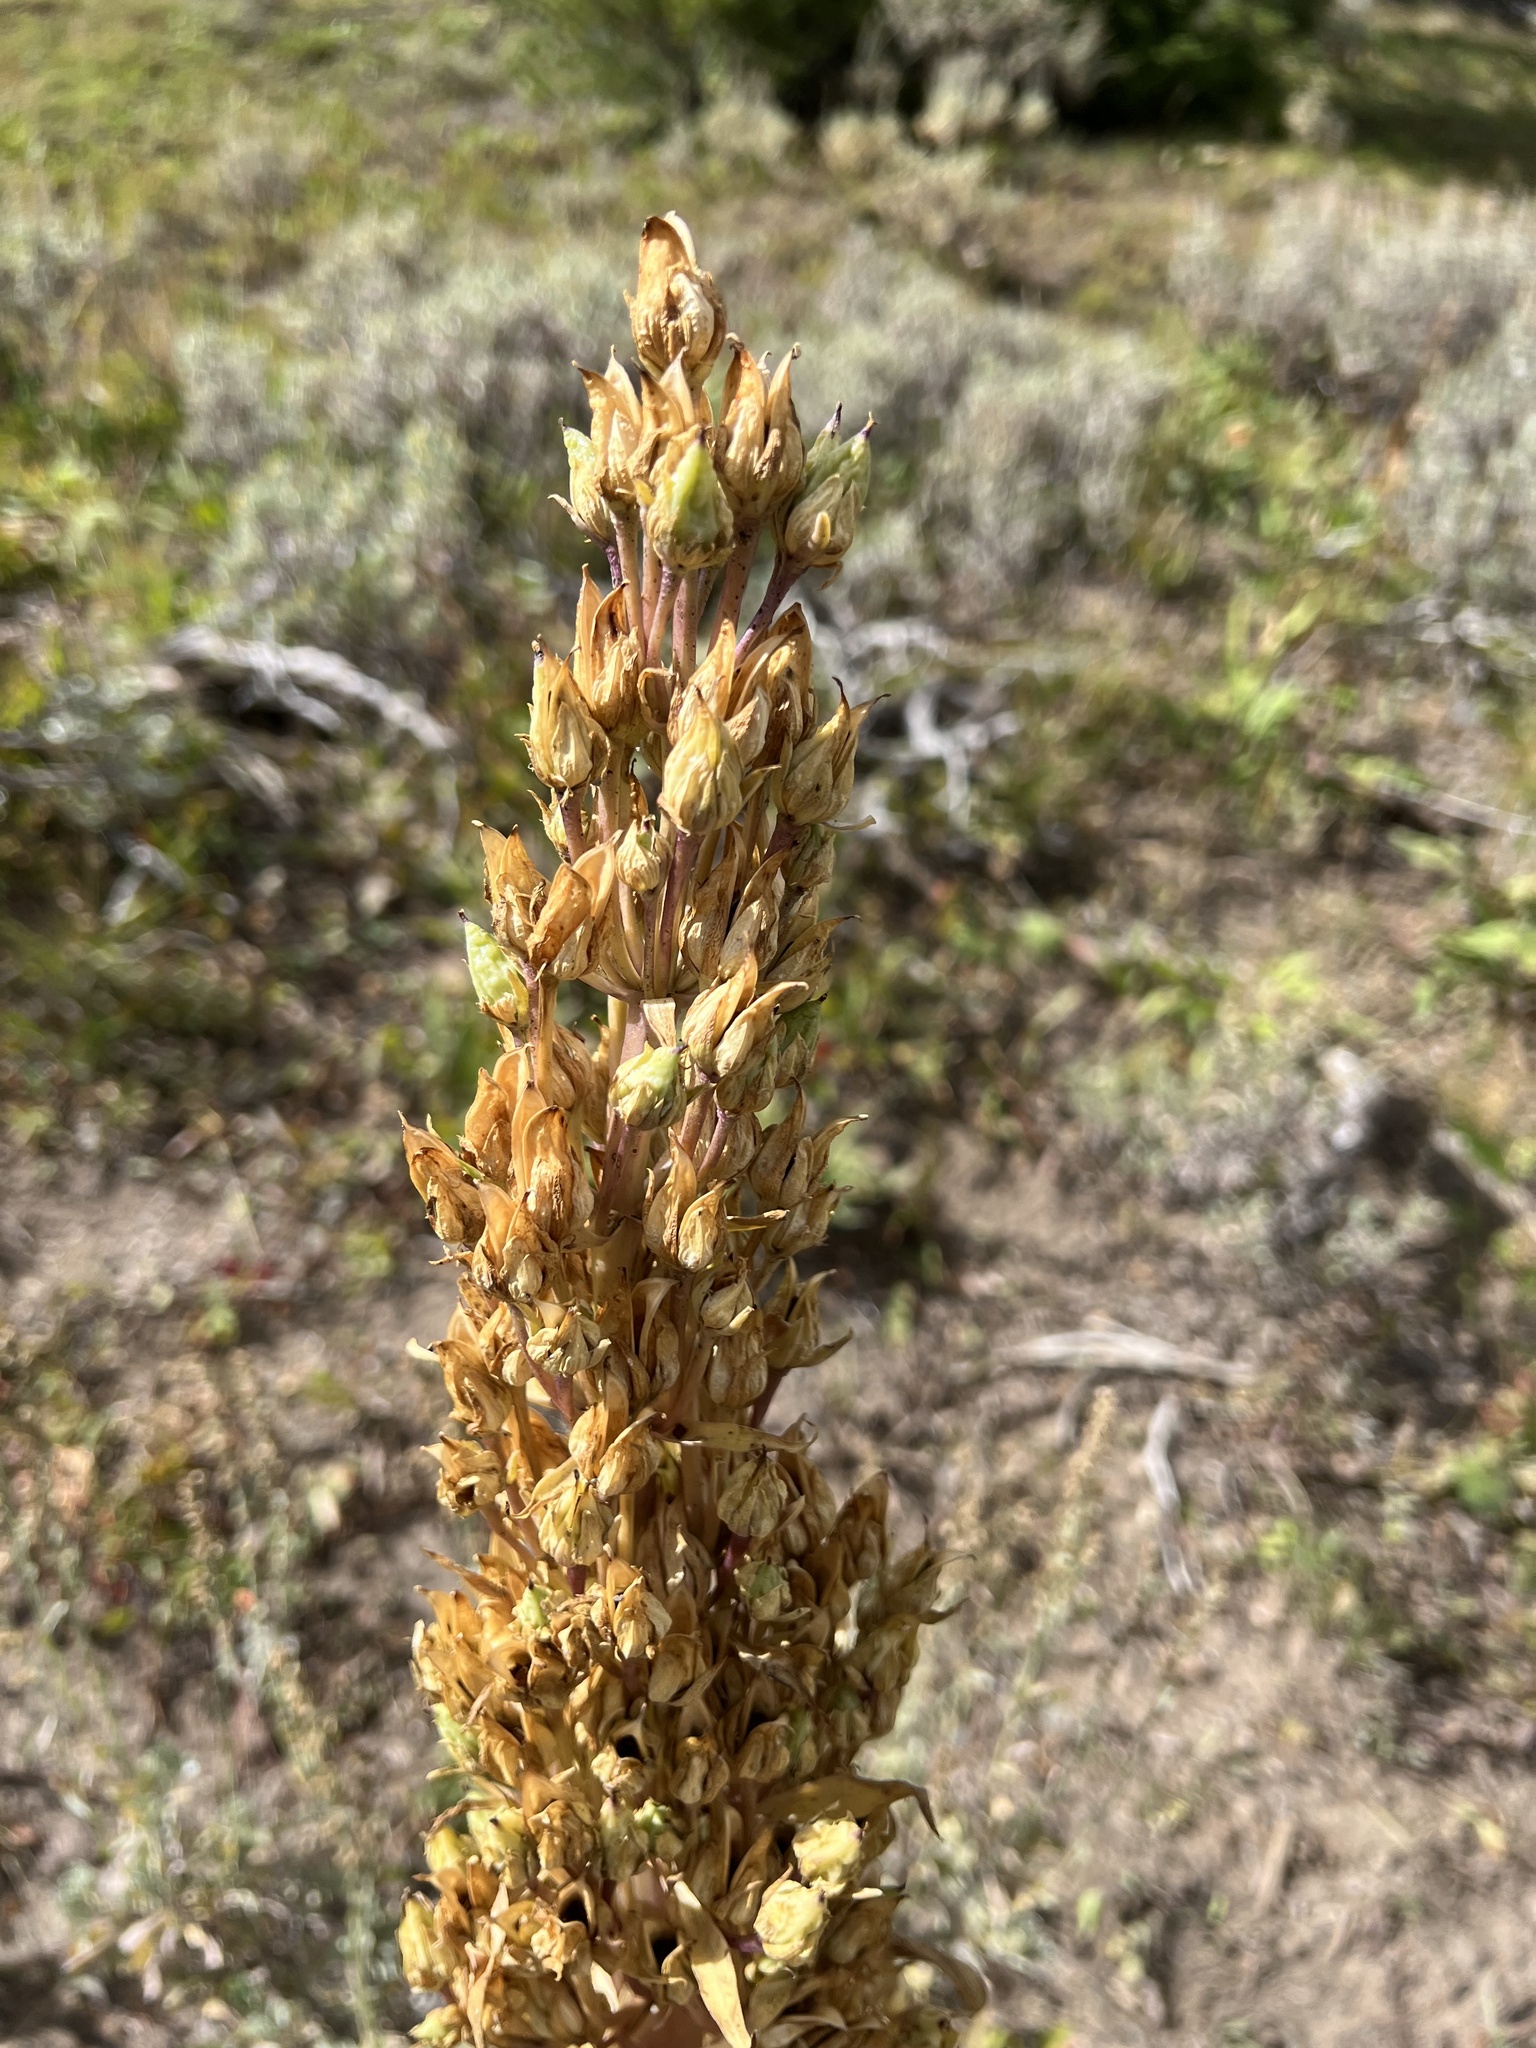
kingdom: Plantae
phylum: Tracheophyta
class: Magnoliopsida
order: Gentianales
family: Gentianaceae
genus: Frasera
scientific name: Frasera speciosa
